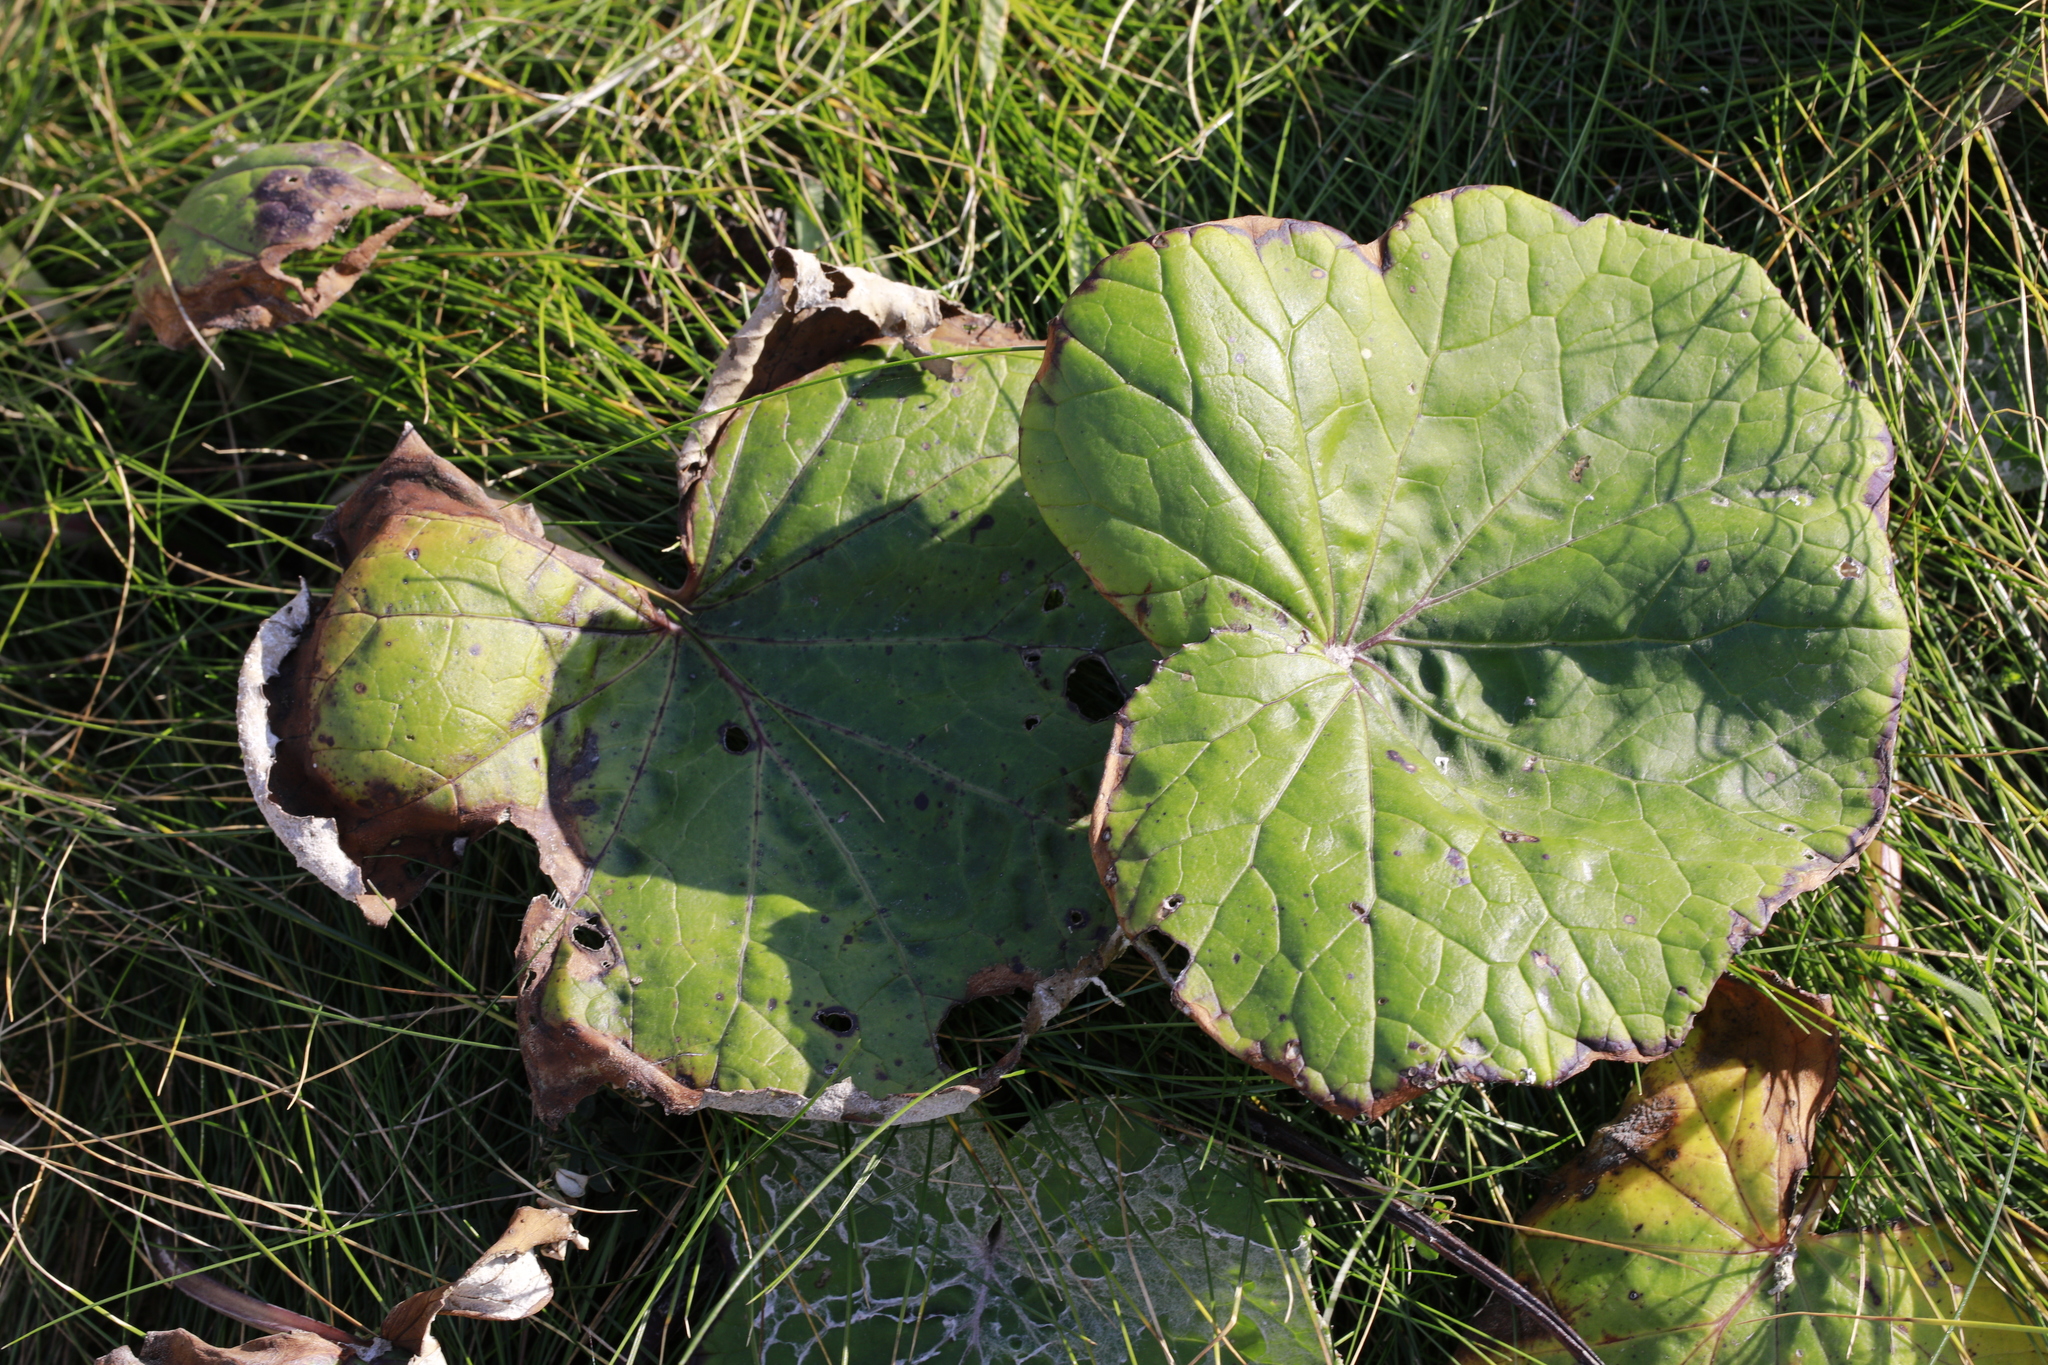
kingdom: Plantae
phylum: Tracheophyta
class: Magnoliopsida
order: Asterales
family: Asteraceae
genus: Tussilago
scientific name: Tussilago farfara
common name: Coltsfoot
